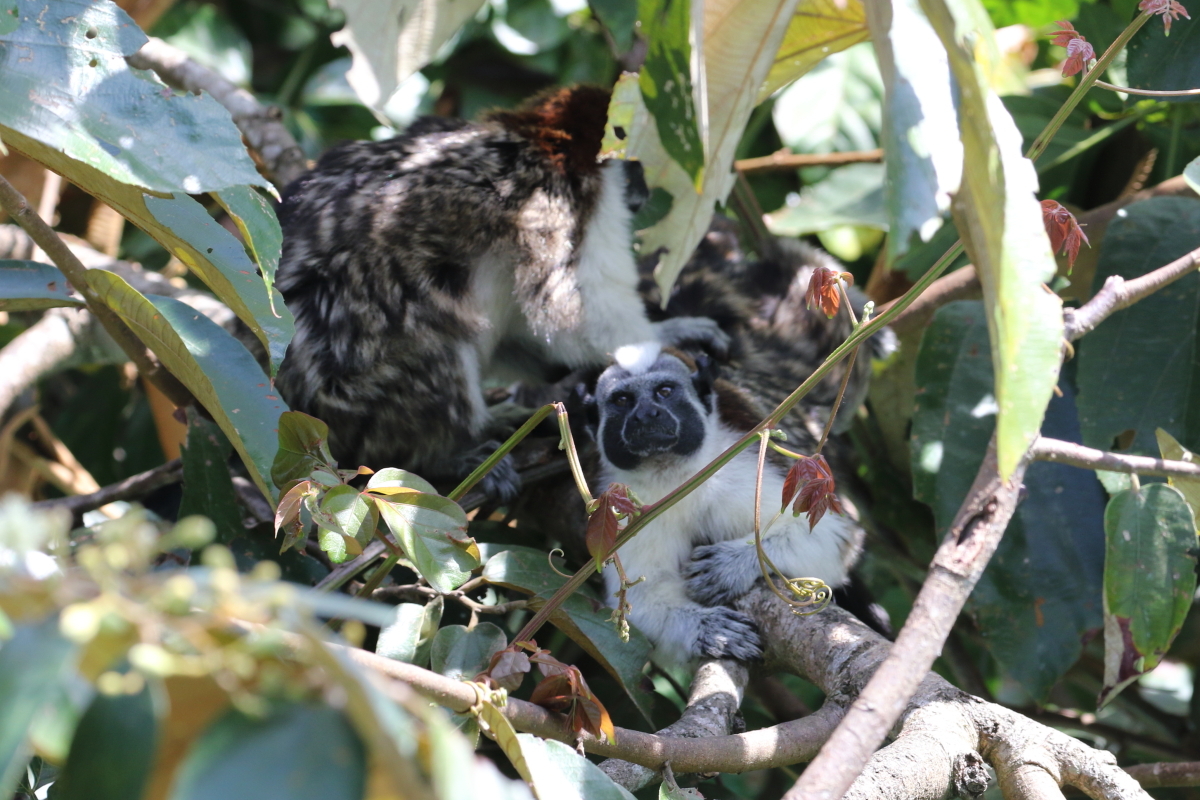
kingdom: Animalia
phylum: Chordata
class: Mammalia
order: Primates
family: Callitrichidae
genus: Saguinus
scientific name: Saguinus geoffroyi
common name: Geoffroy s tamarin
